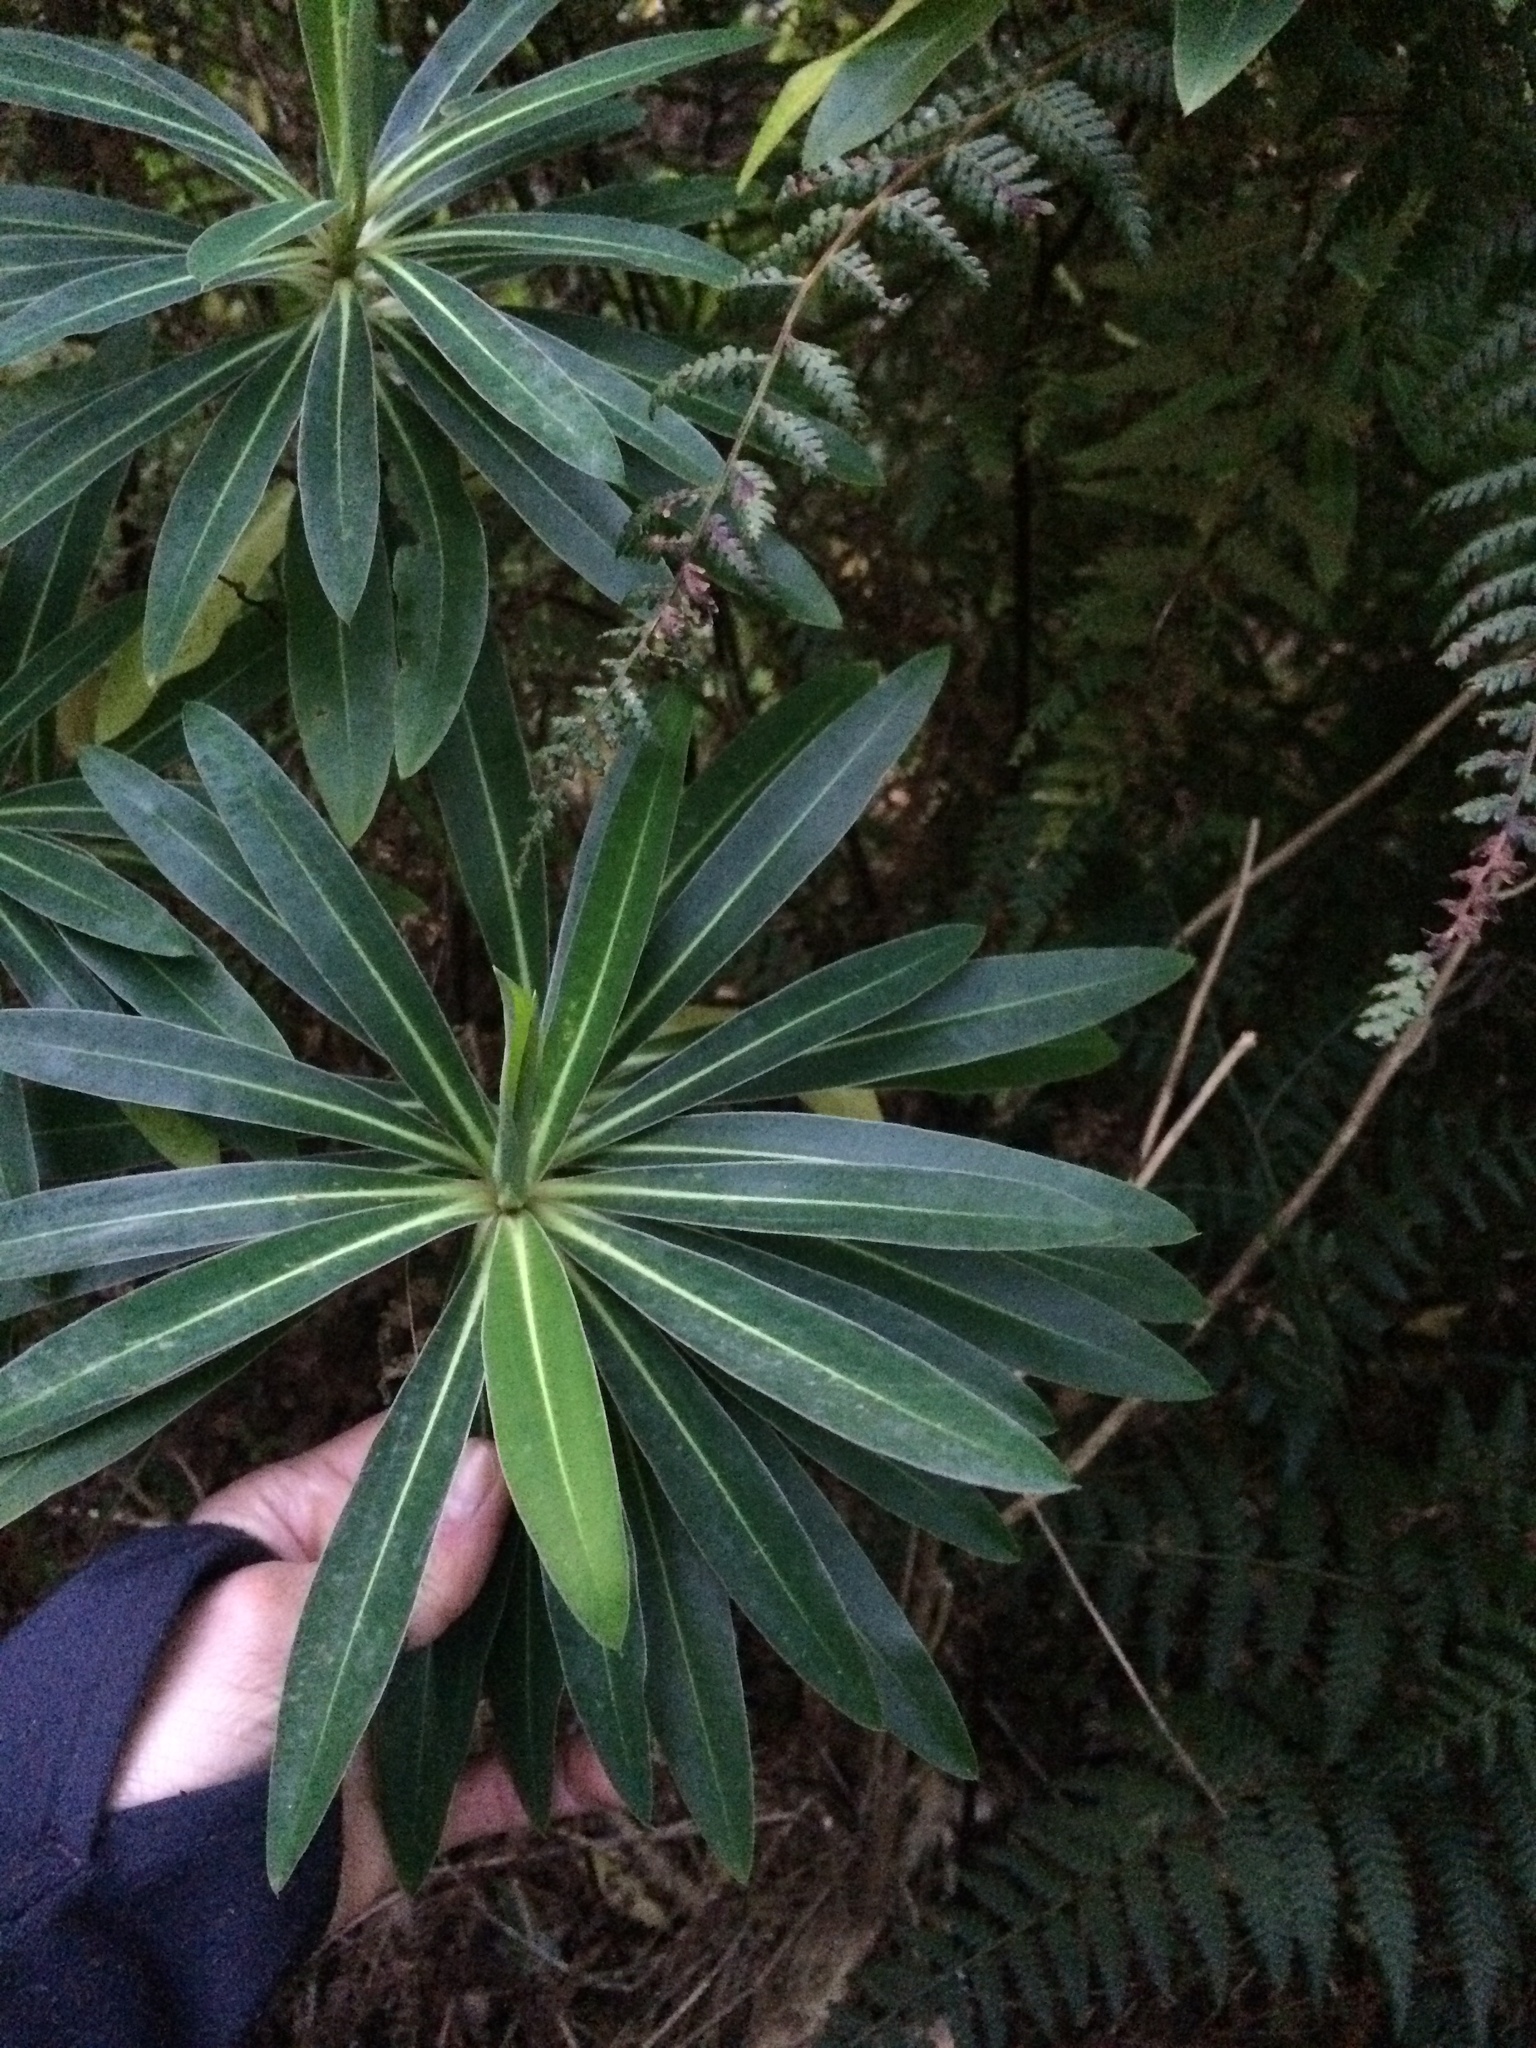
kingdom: Plantae
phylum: Tracheophyta
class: Magnoliopsida
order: Gentianales
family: Apocynaceae
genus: Nerium
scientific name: Nerium oleander
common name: Oleander
